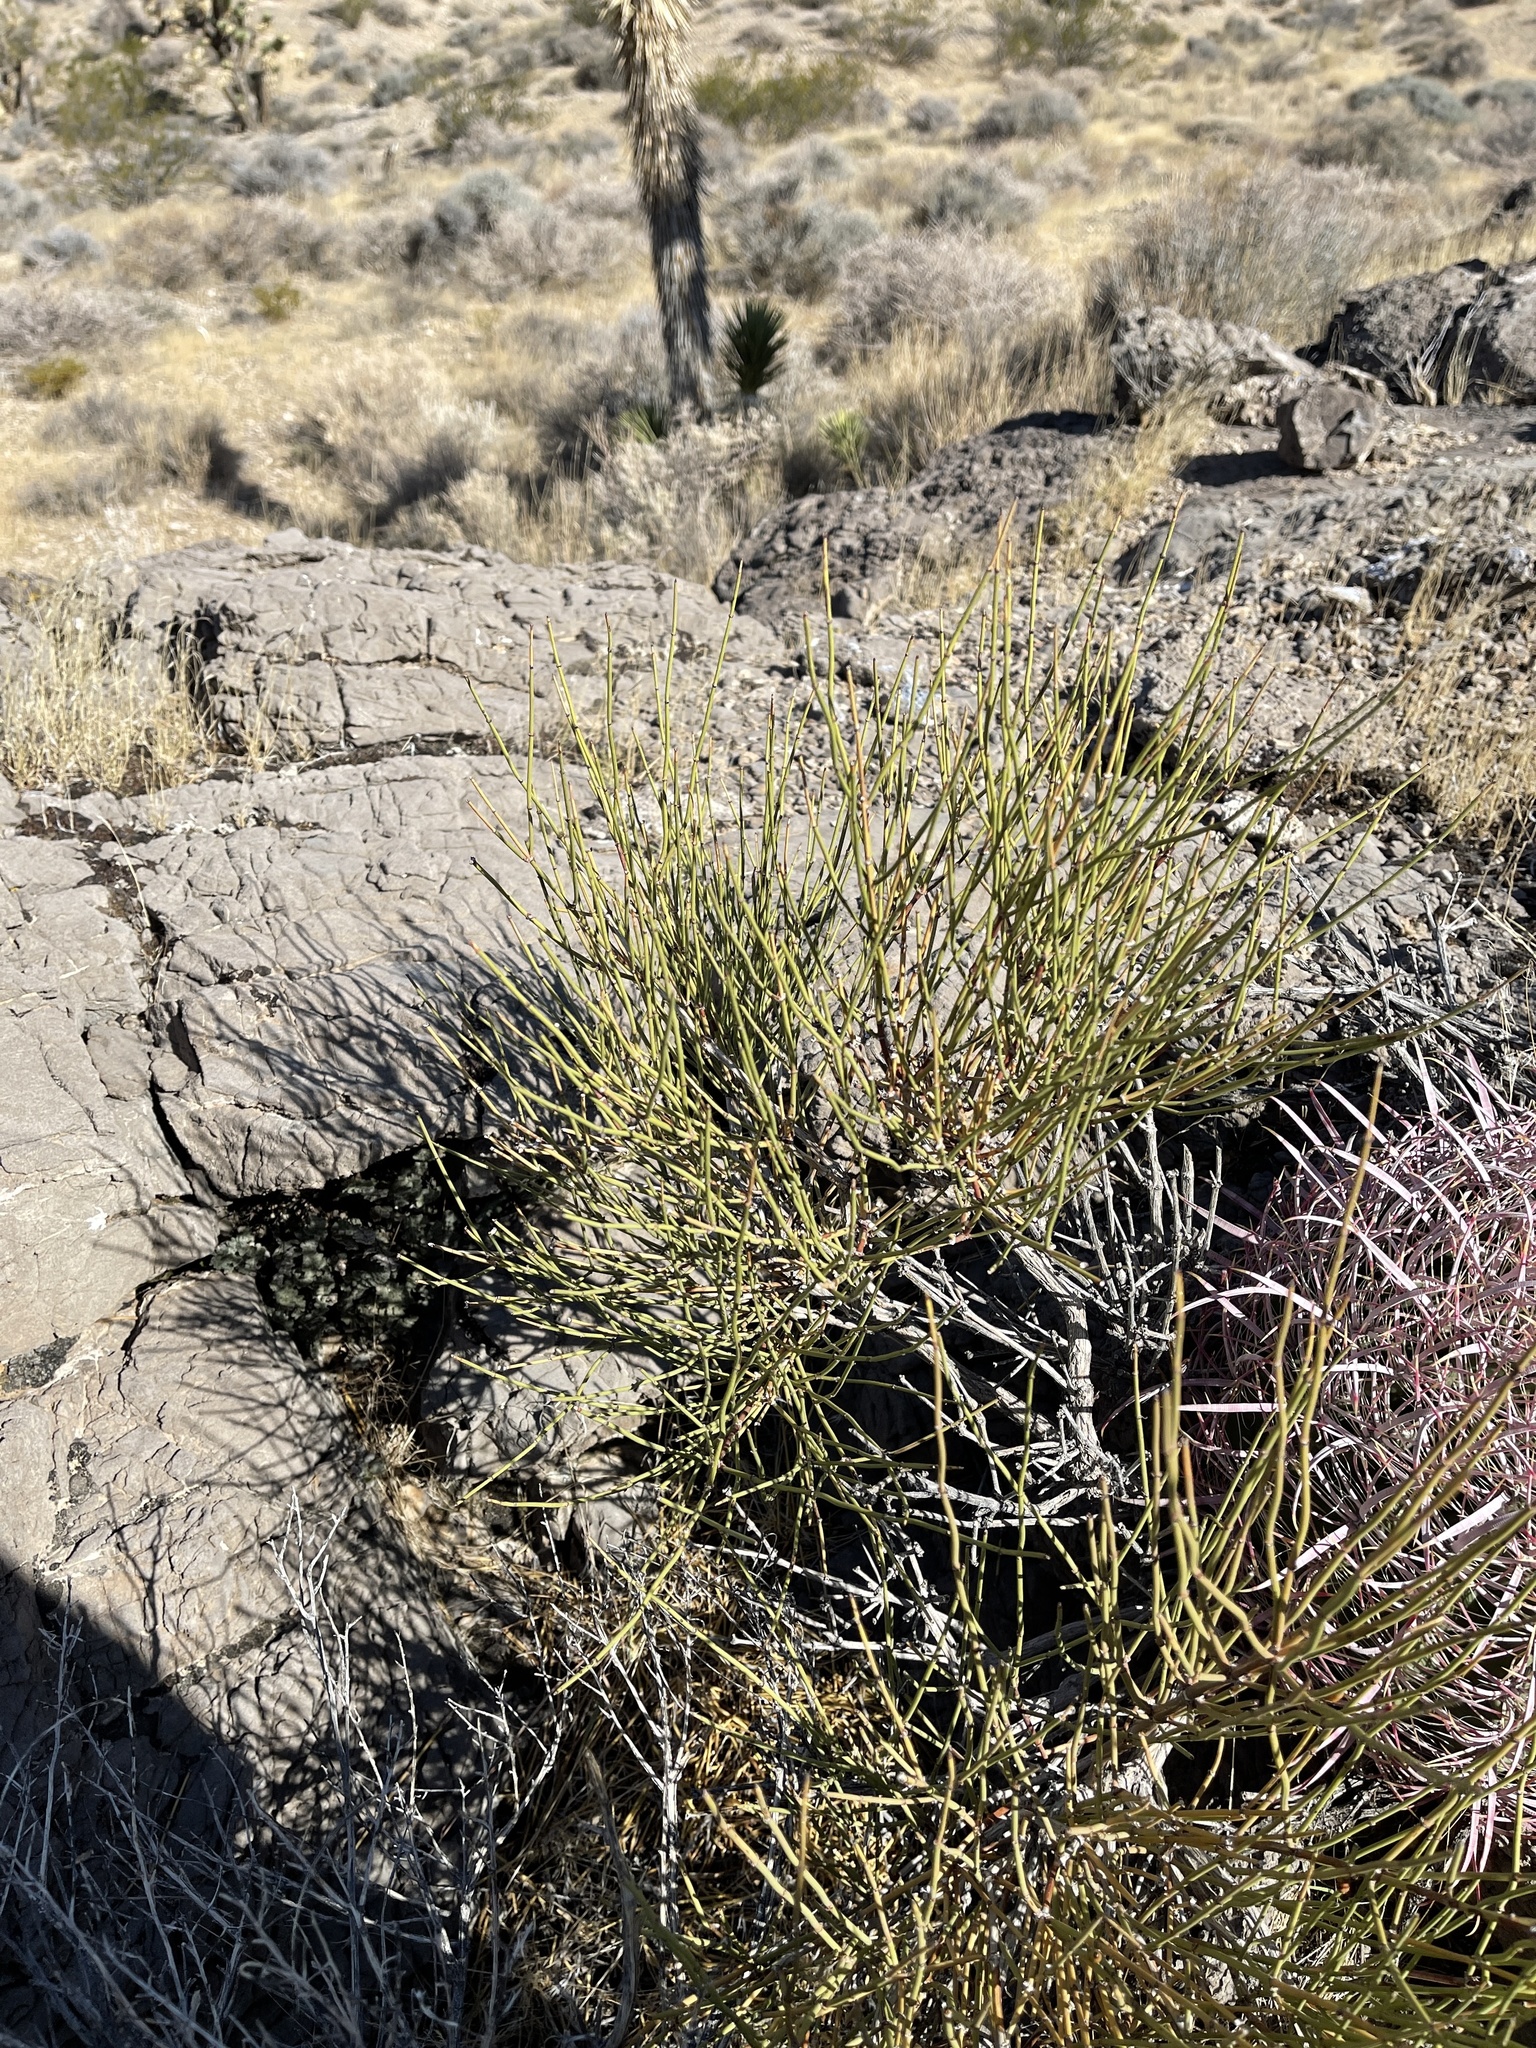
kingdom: Plantae
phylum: Tracheophyta
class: Gnetopsida
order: Ephedrales
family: Ephedraceae
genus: Ephedra
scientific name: Ephedra viridis
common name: Green ephedra
